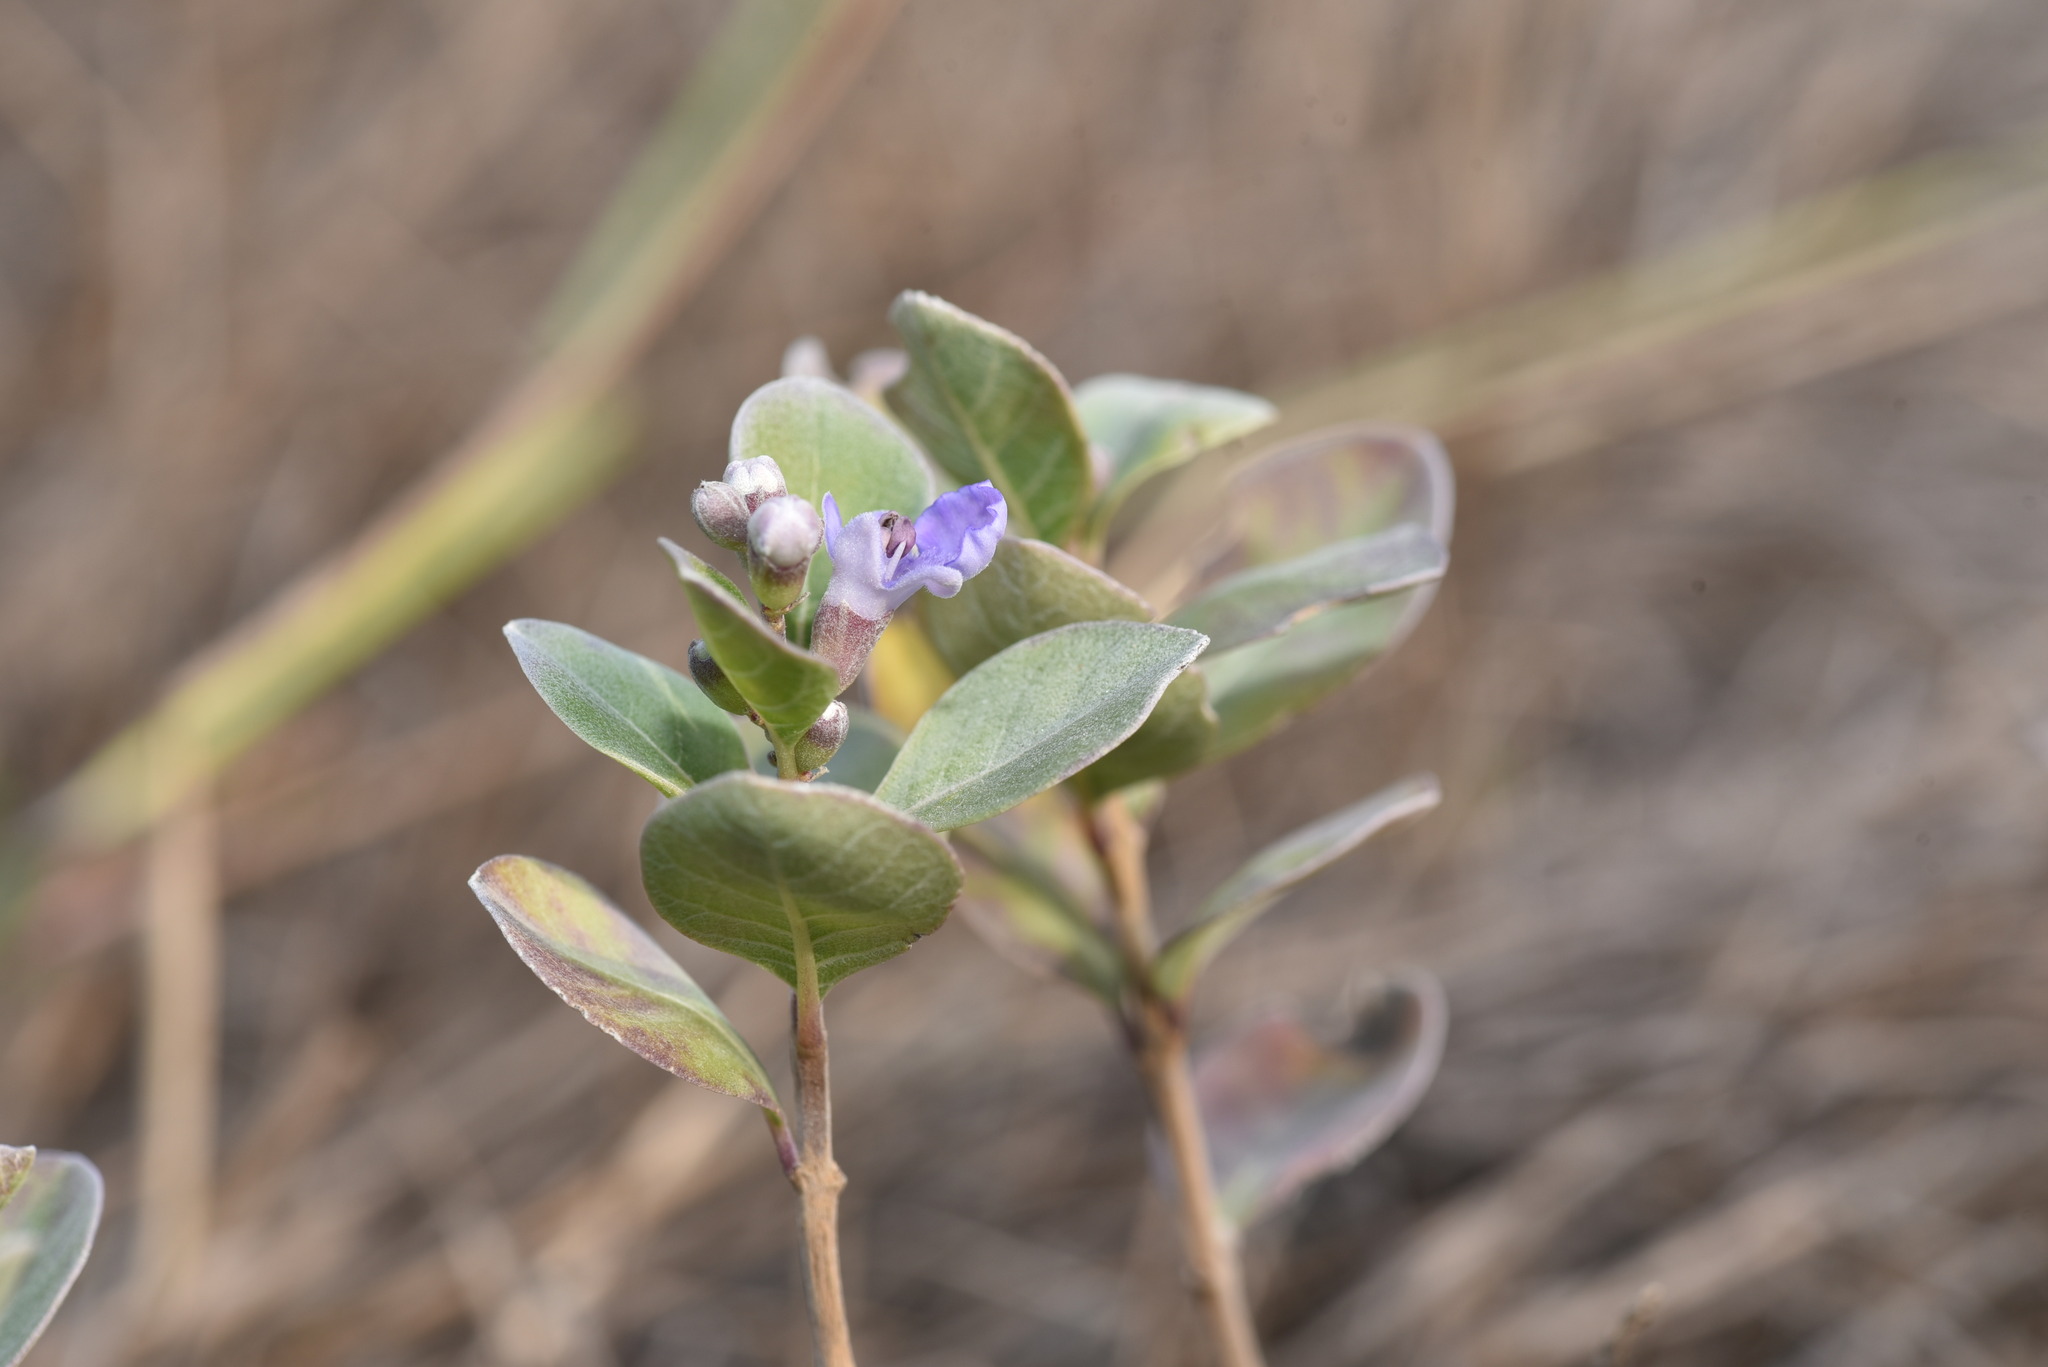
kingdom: Plantae
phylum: Tracheophyta
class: Magnoliopsida
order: Lamiales
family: Lamiaceae
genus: Vitex
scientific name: Vitex rotundifolia
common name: Beach vitex
